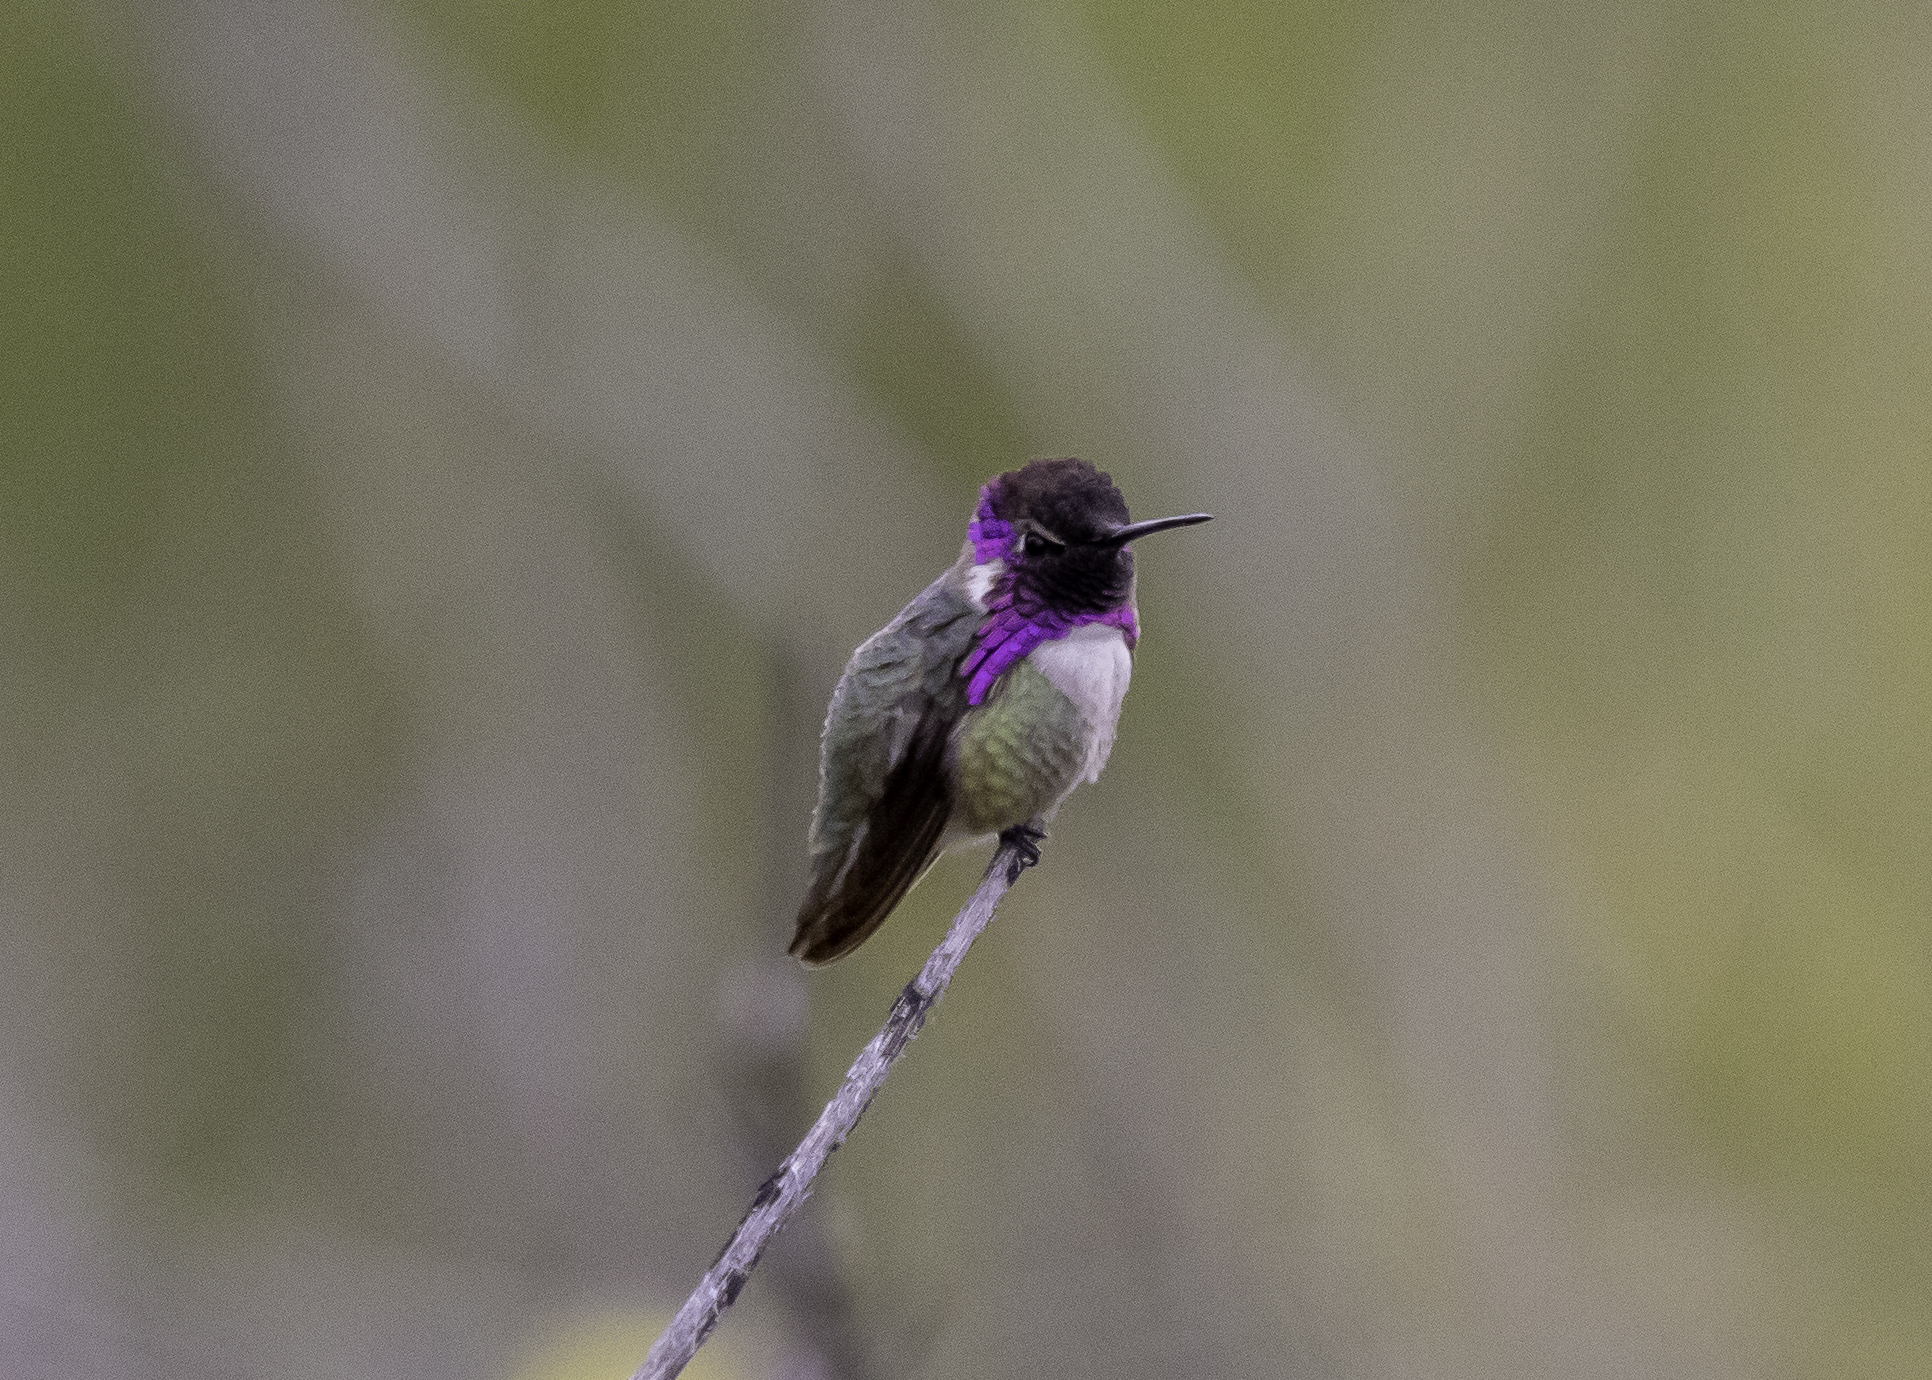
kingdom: Animalia
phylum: Chordata
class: Aves
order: Apodiformes
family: Trochilidae
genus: Calypte
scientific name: Calypte costae
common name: Costa's hummingbird
